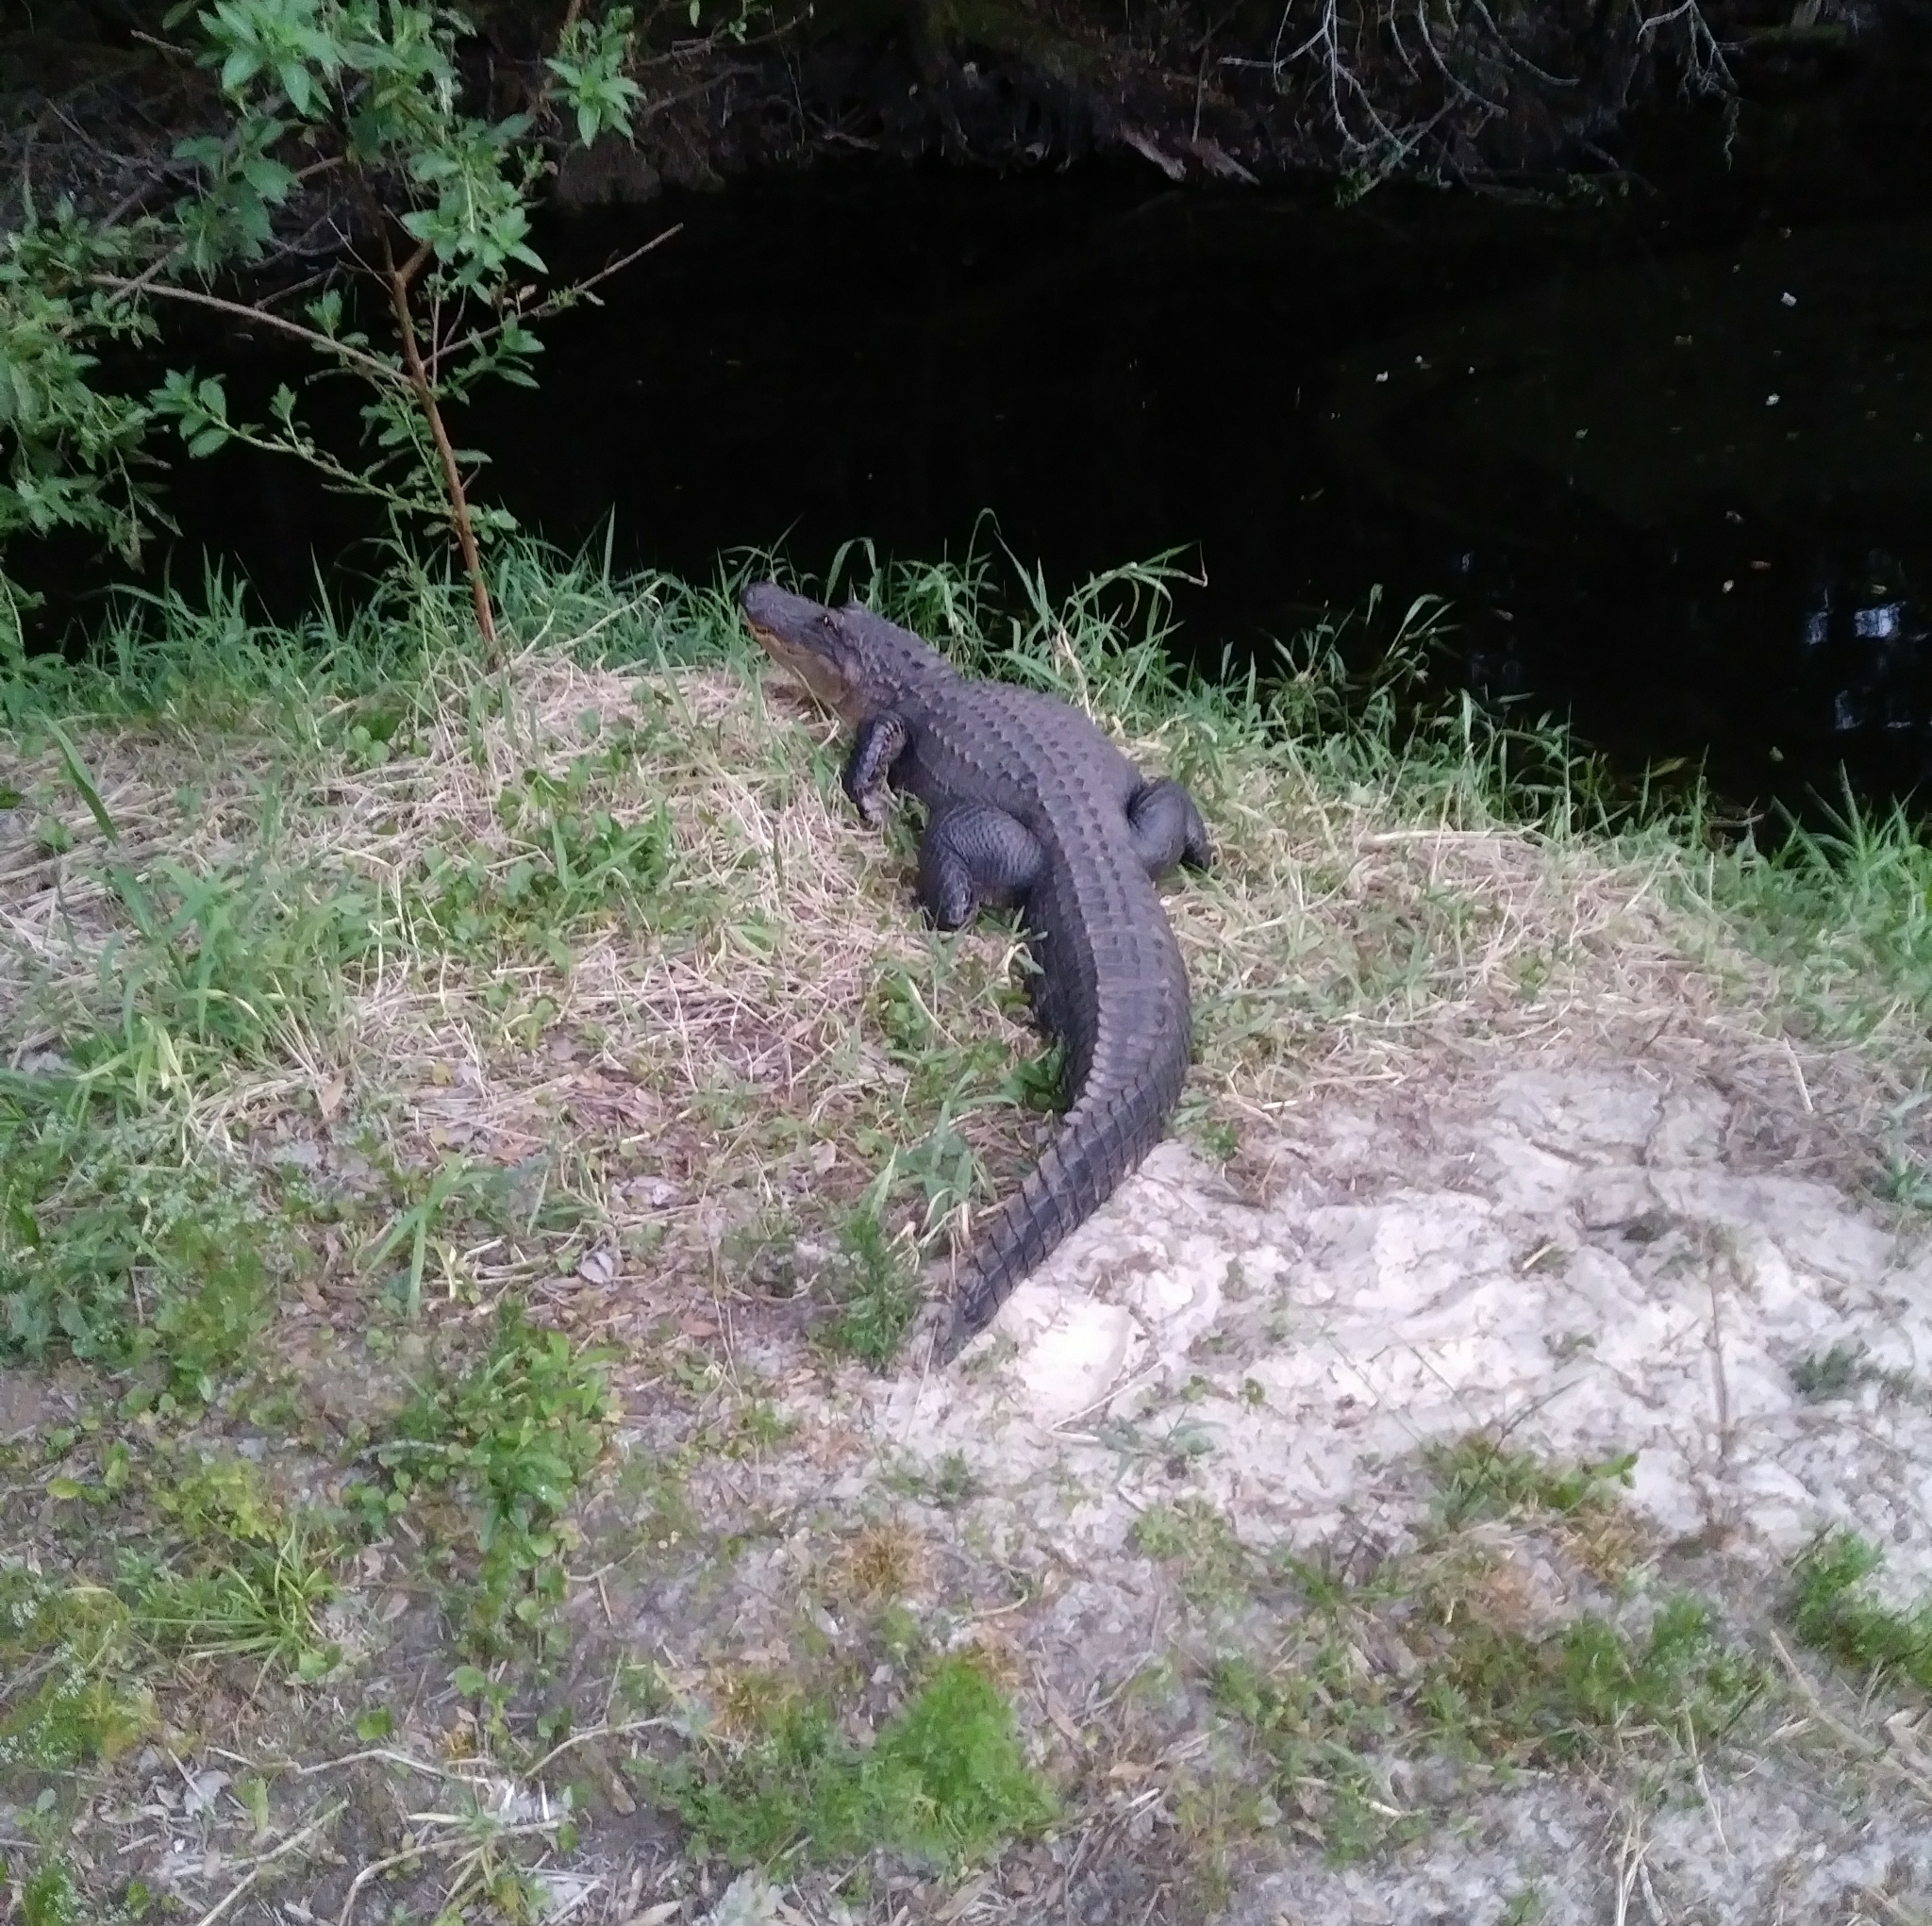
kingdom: Animalia
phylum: Chordata
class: Crocodylia
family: Alligatoridae
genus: Alligator
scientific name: Alligator mississippiensis
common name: American alligator
